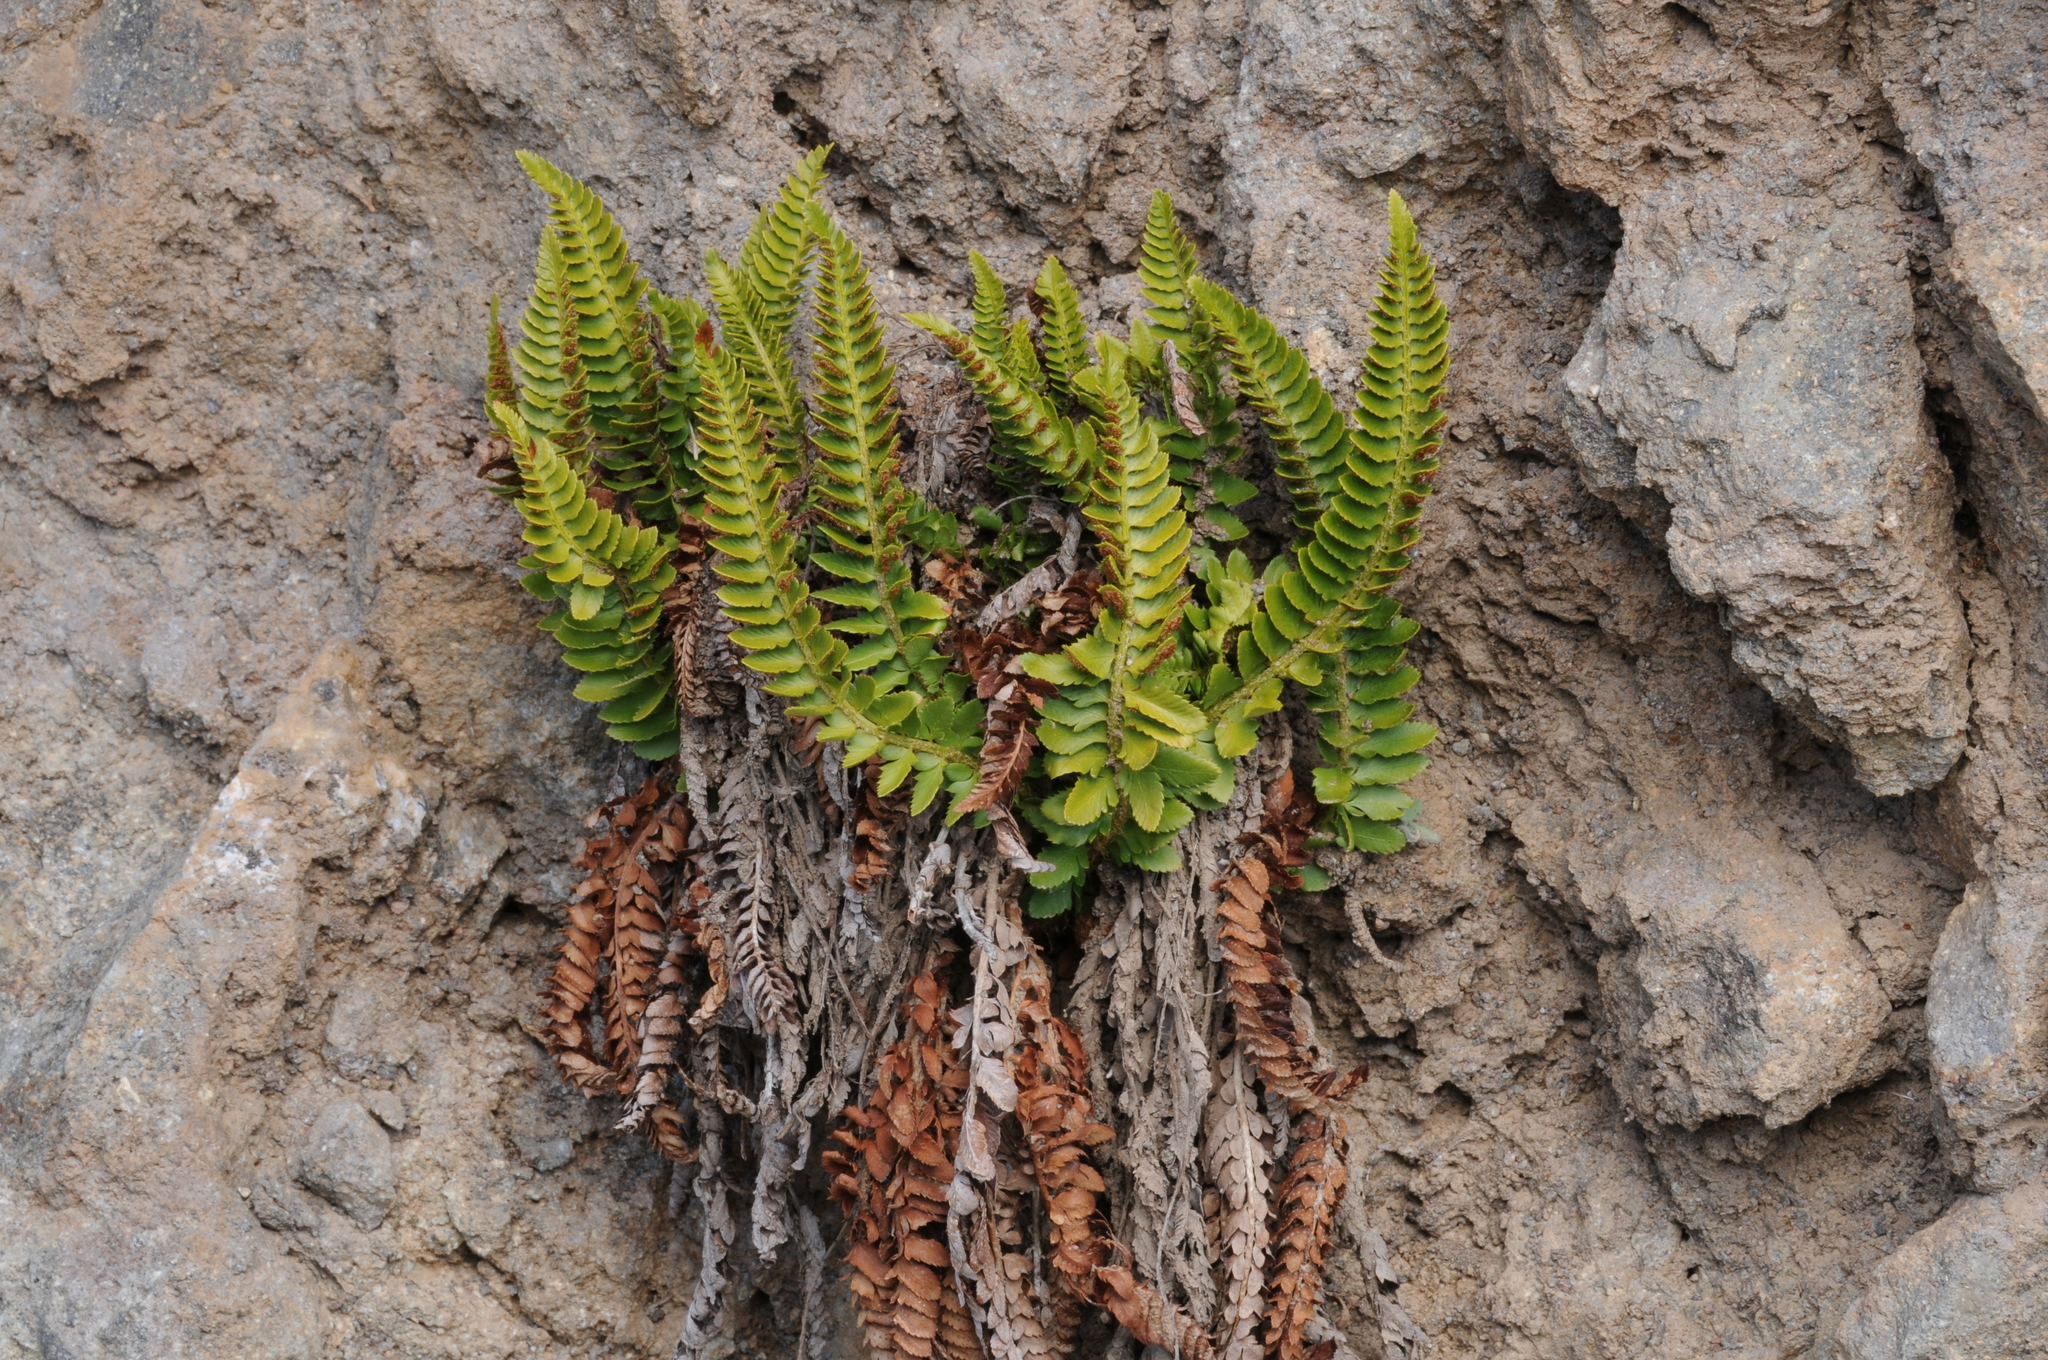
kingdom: Plantae
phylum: Tracheophyta
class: Polypodiopsida
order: Polypodiales
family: Dryopteridaceae
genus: Polystichum
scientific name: Polystichum scopulinum
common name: Eaton's shield fern
